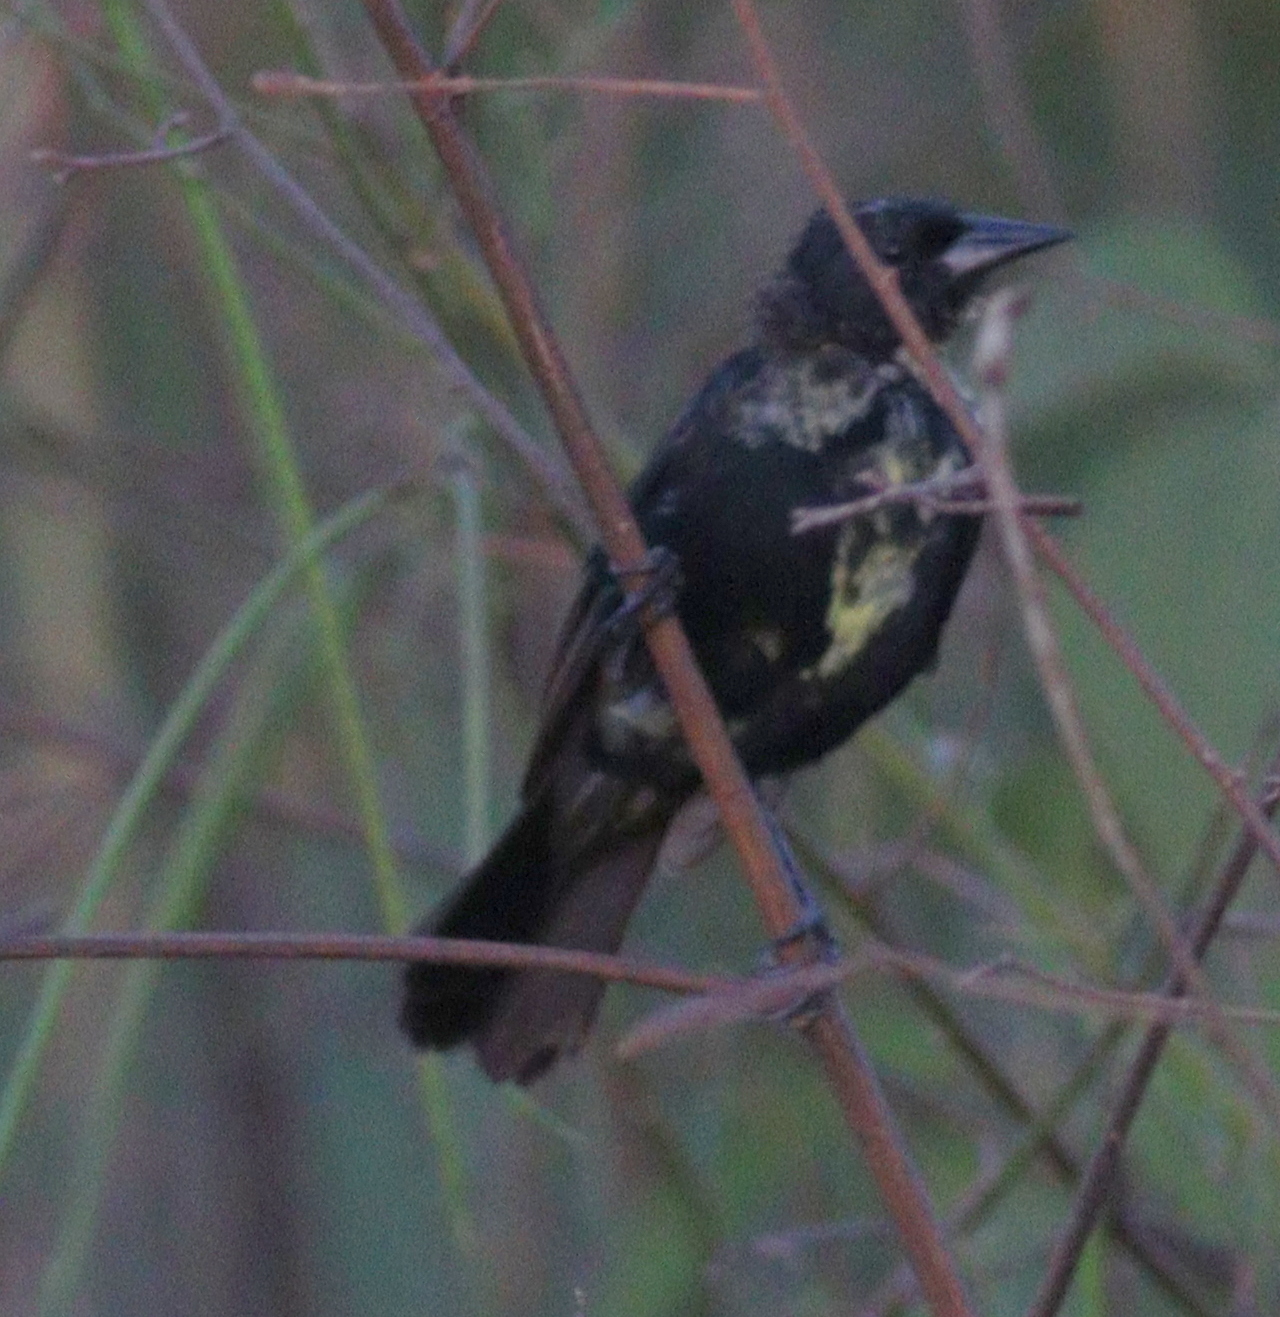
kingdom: Animalia
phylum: Chordata
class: Aves
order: Passeriformes
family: Icteridae
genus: Agelasticus
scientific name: Agelasticus cyanopus
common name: Unicolored blackbird
